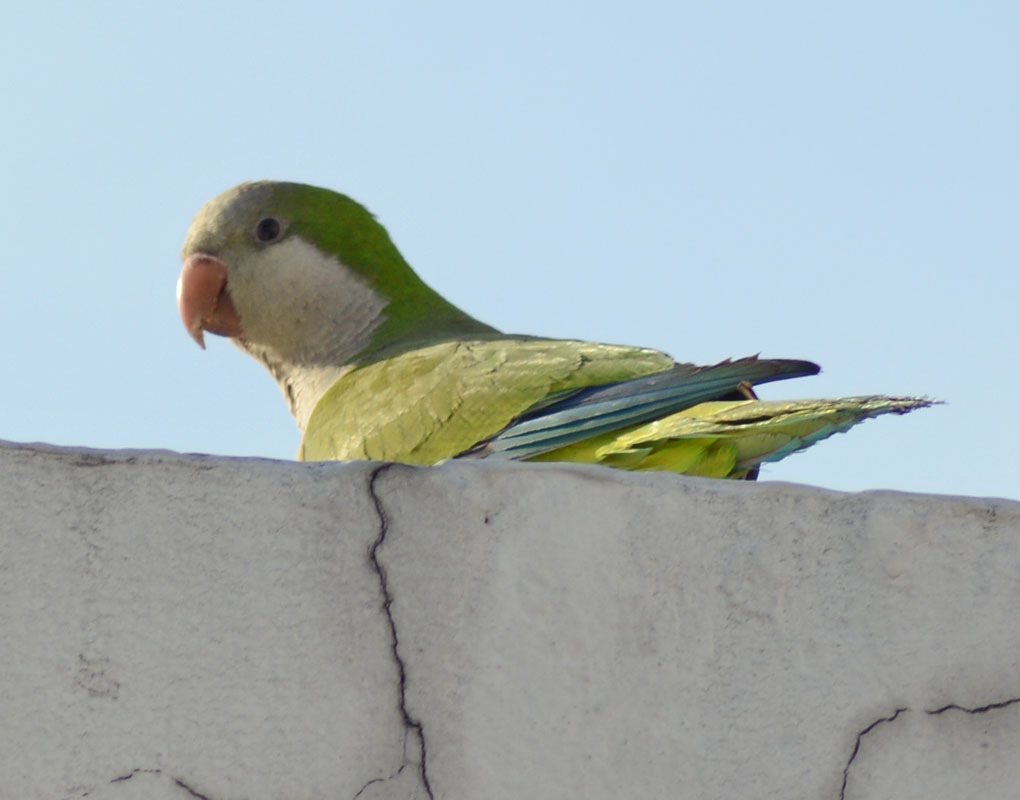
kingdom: Animalia
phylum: Chordata
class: Aves
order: Psittaciformes
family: Psittacidae
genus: Myiopsitta
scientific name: Myiopsitta monachus
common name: Monk parakeet
